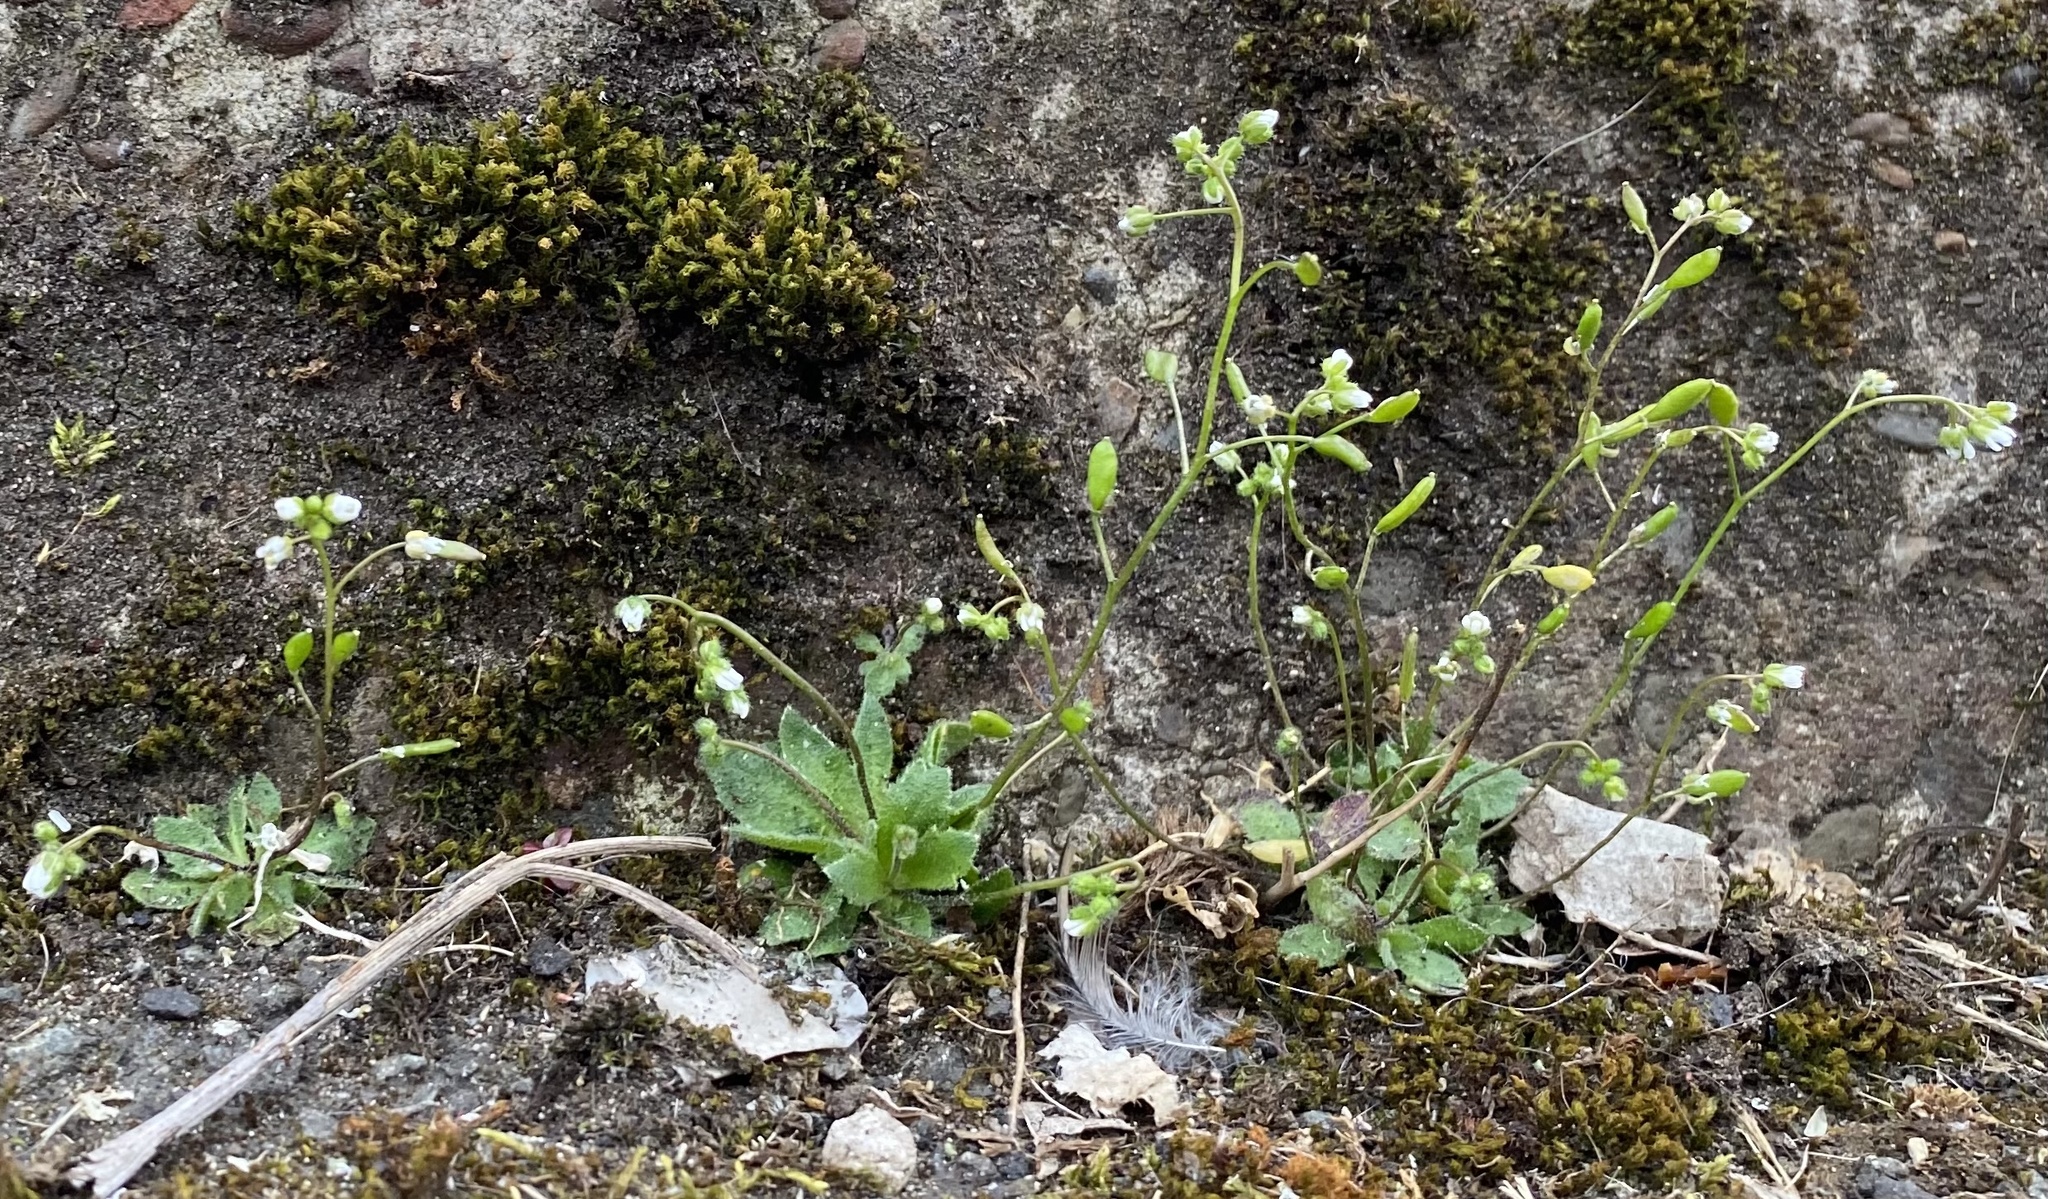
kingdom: Plantae
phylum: Tracheophyta
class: Magnoliopsida
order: Brassicales
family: Brassicaceae
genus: Draba
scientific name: Draba verna
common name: Spring draba
